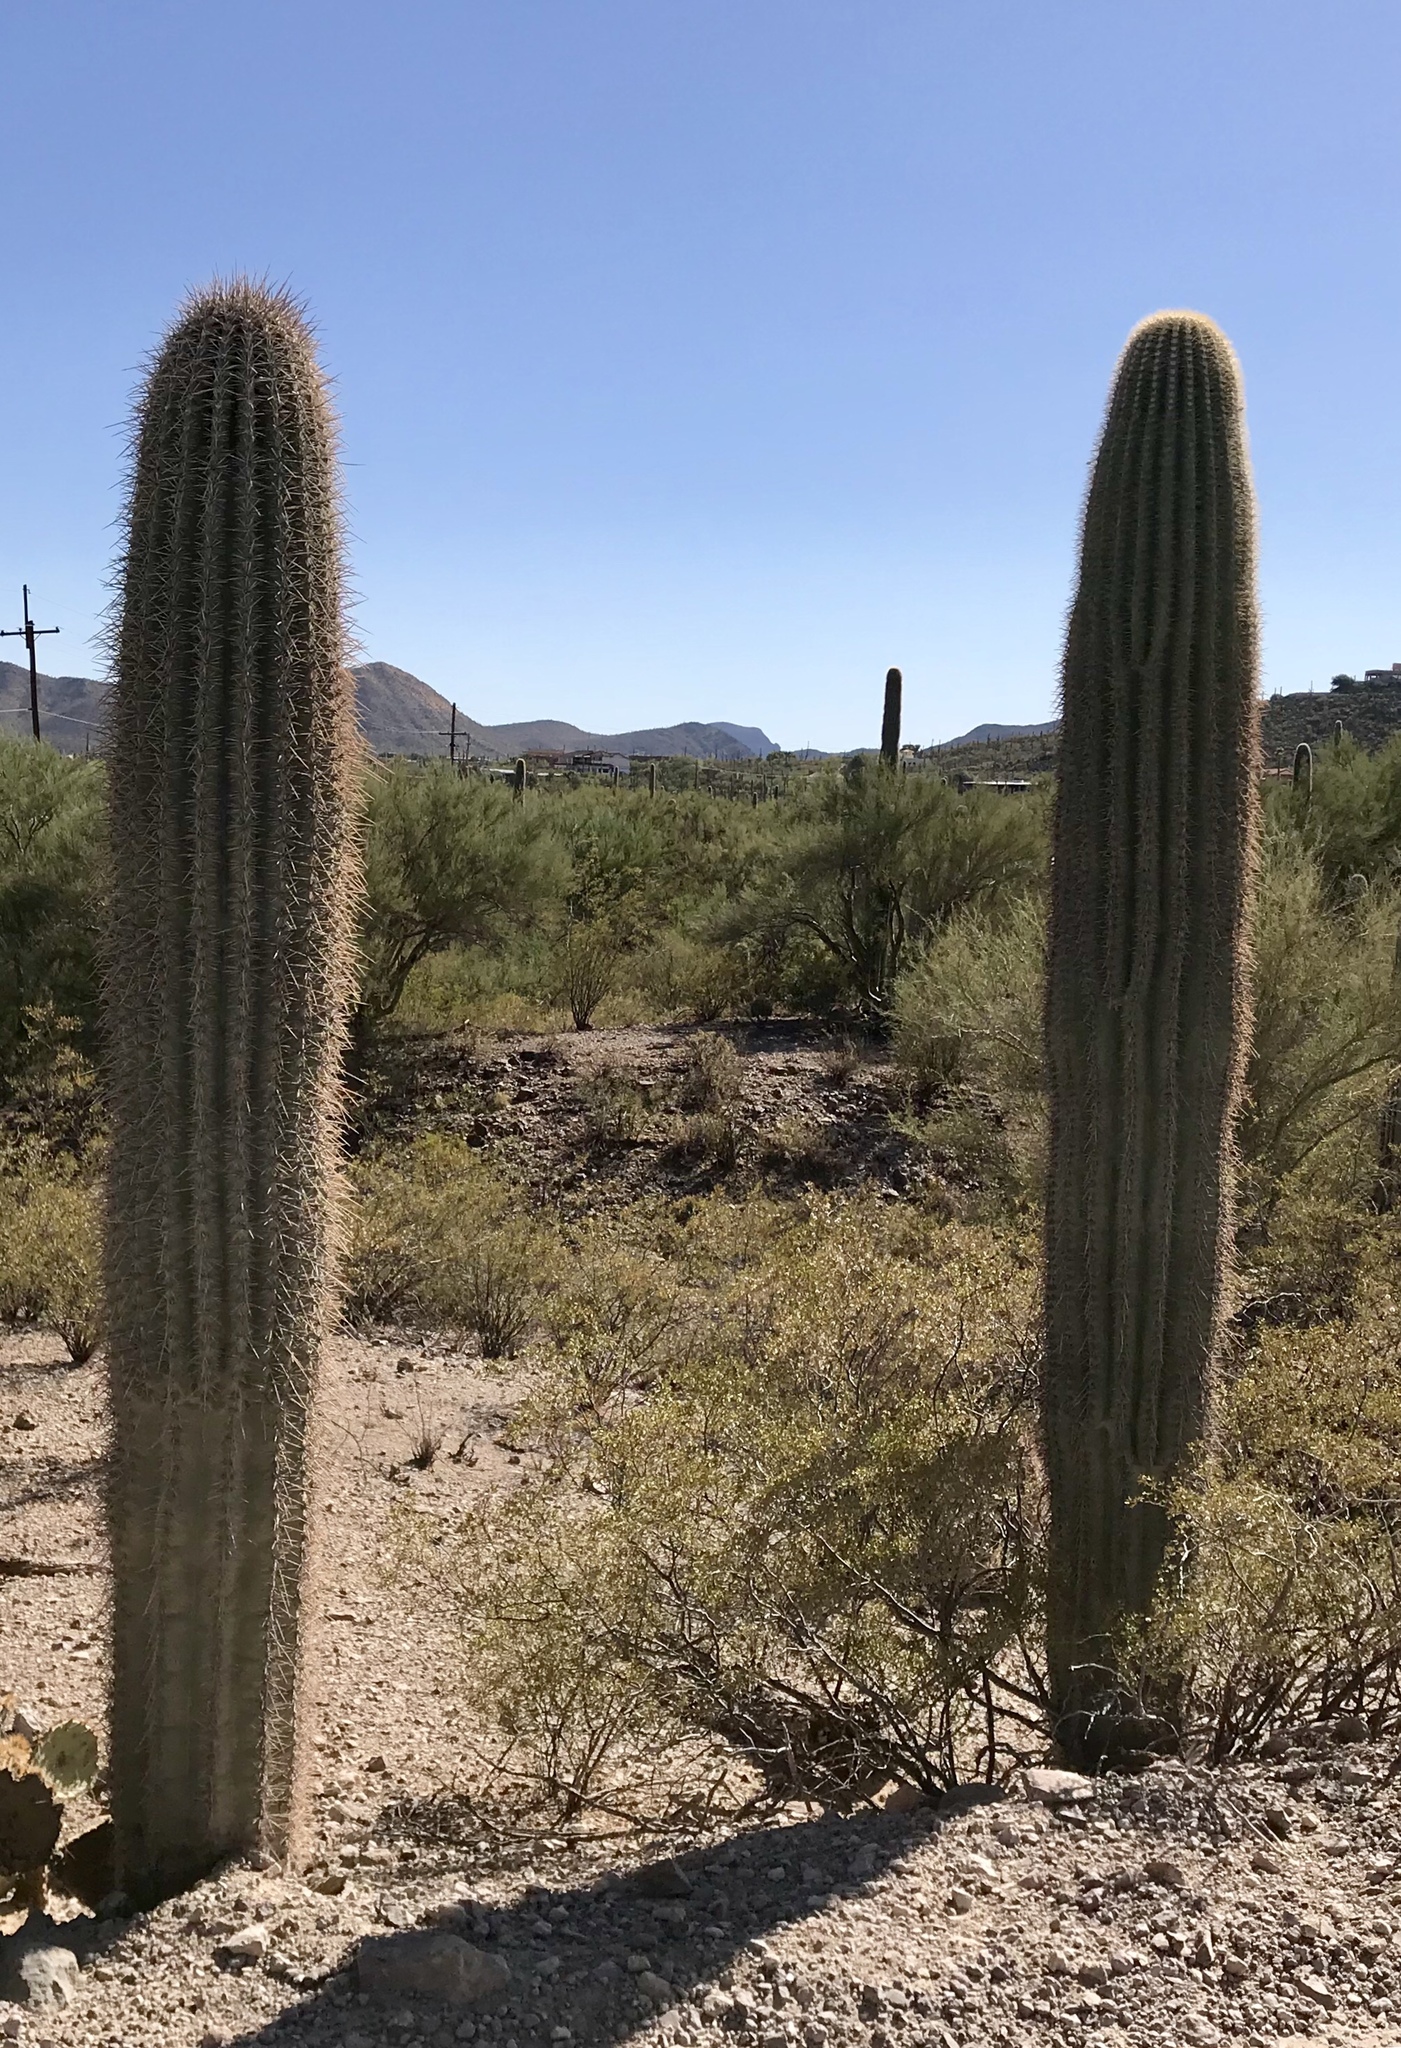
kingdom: Plantae
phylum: Tracheophyta
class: Magnoliopsida
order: Caryophyllales
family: Cactaceae
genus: Carnegiea
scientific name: Carnegiea gigantea
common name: Saguaro
